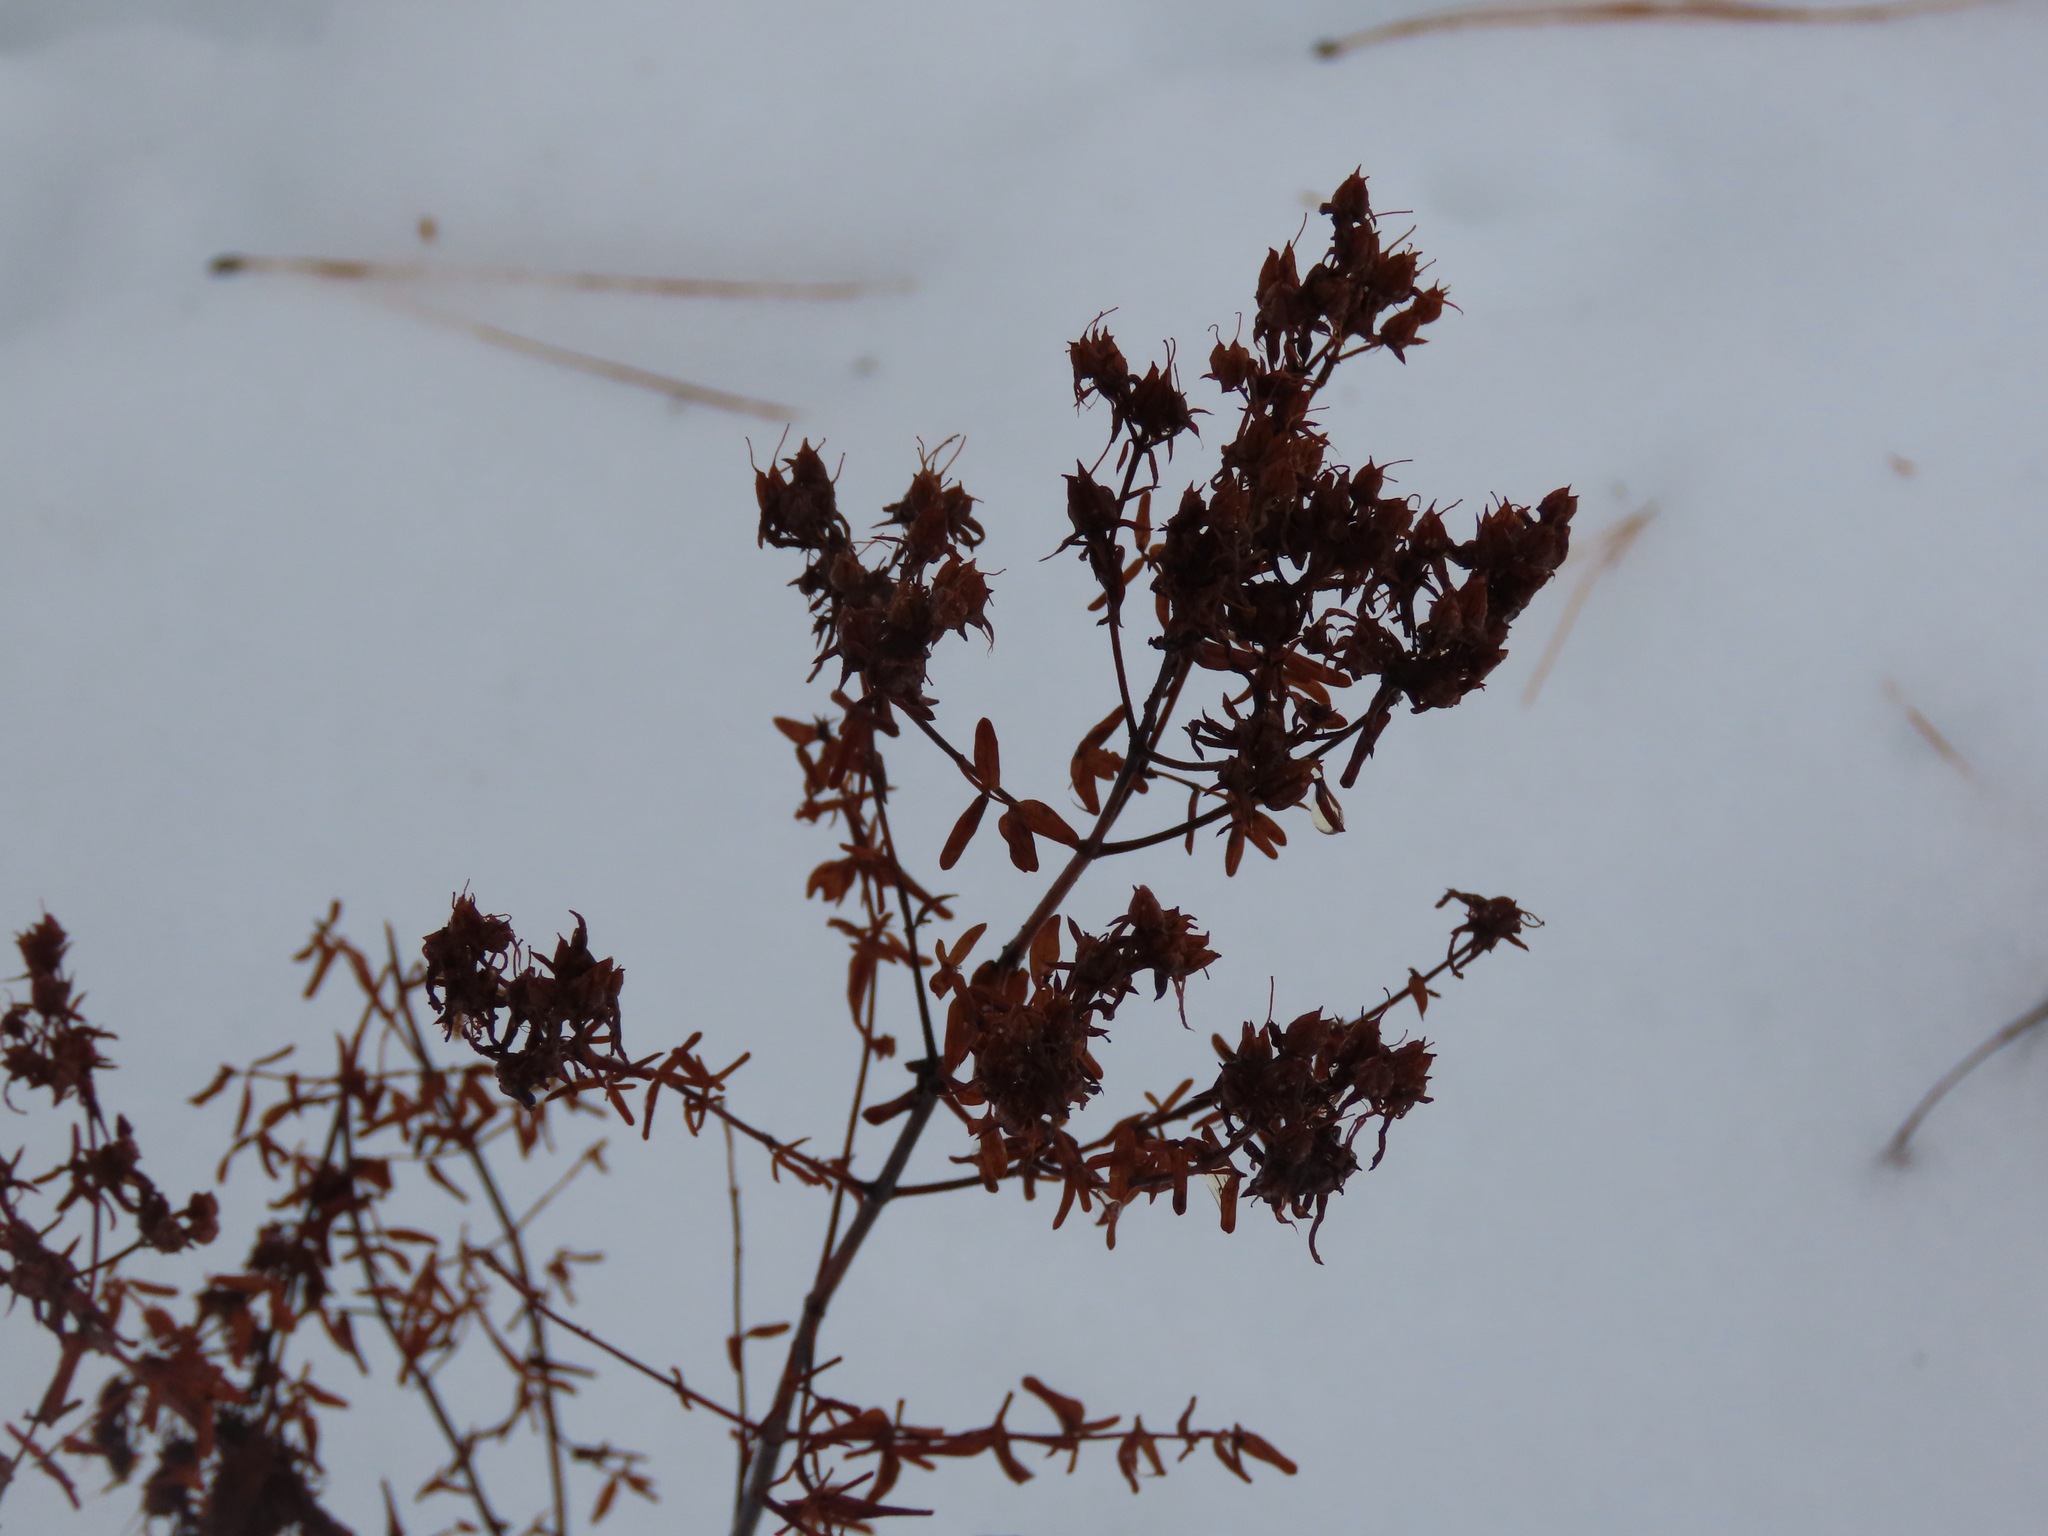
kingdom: Plantae
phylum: Tracheophyta
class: Magnoliopsida
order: Malpighiales
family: Hypericaceae
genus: Hypericum
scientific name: Hypericum perforatum
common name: Common st. johnswort
